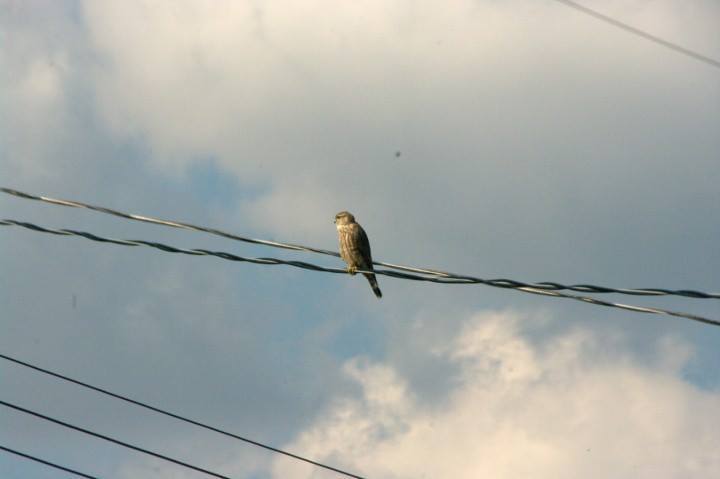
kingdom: Animalia
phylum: Chordata
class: Aves
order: Falconiformes
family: Falconidae
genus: Falco
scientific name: Falco columbarius
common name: Merlin
